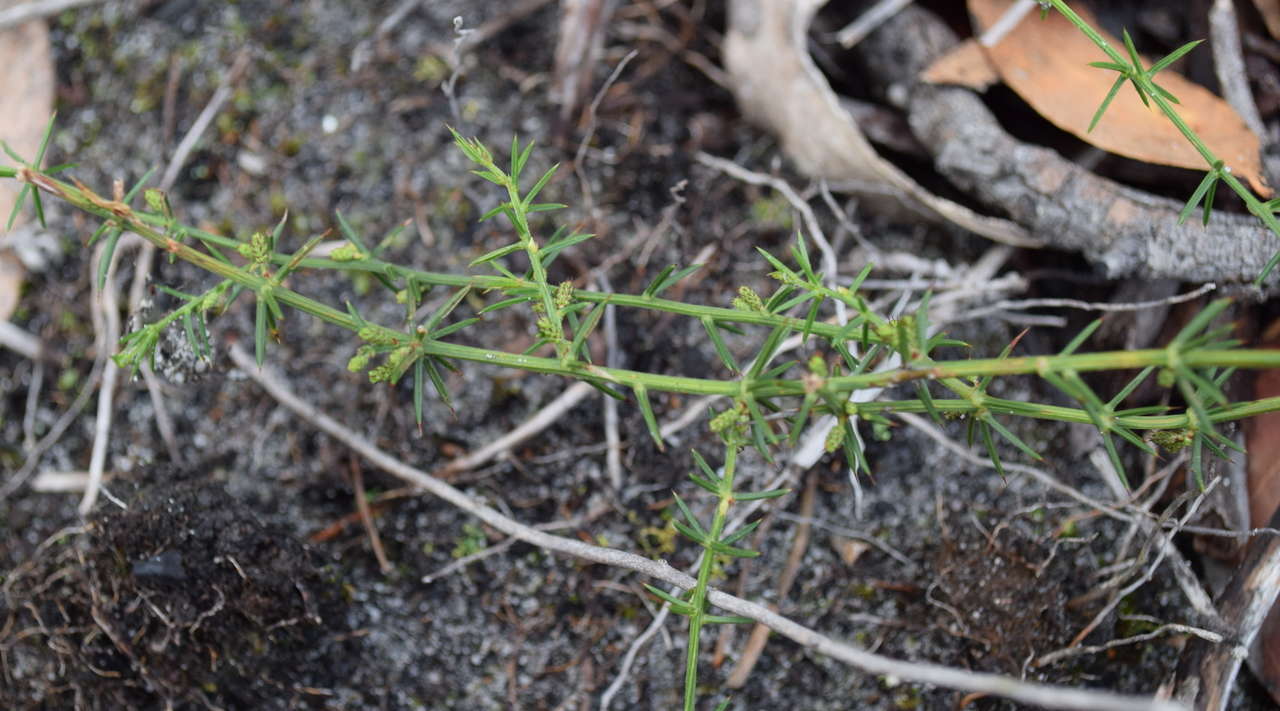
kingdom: Plantae
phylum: Tracheophyta
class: Magnoliopsida
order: Fabales
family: Fabaceae
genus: Acacia
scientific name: Acacia verticillata
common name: Prickly moses
